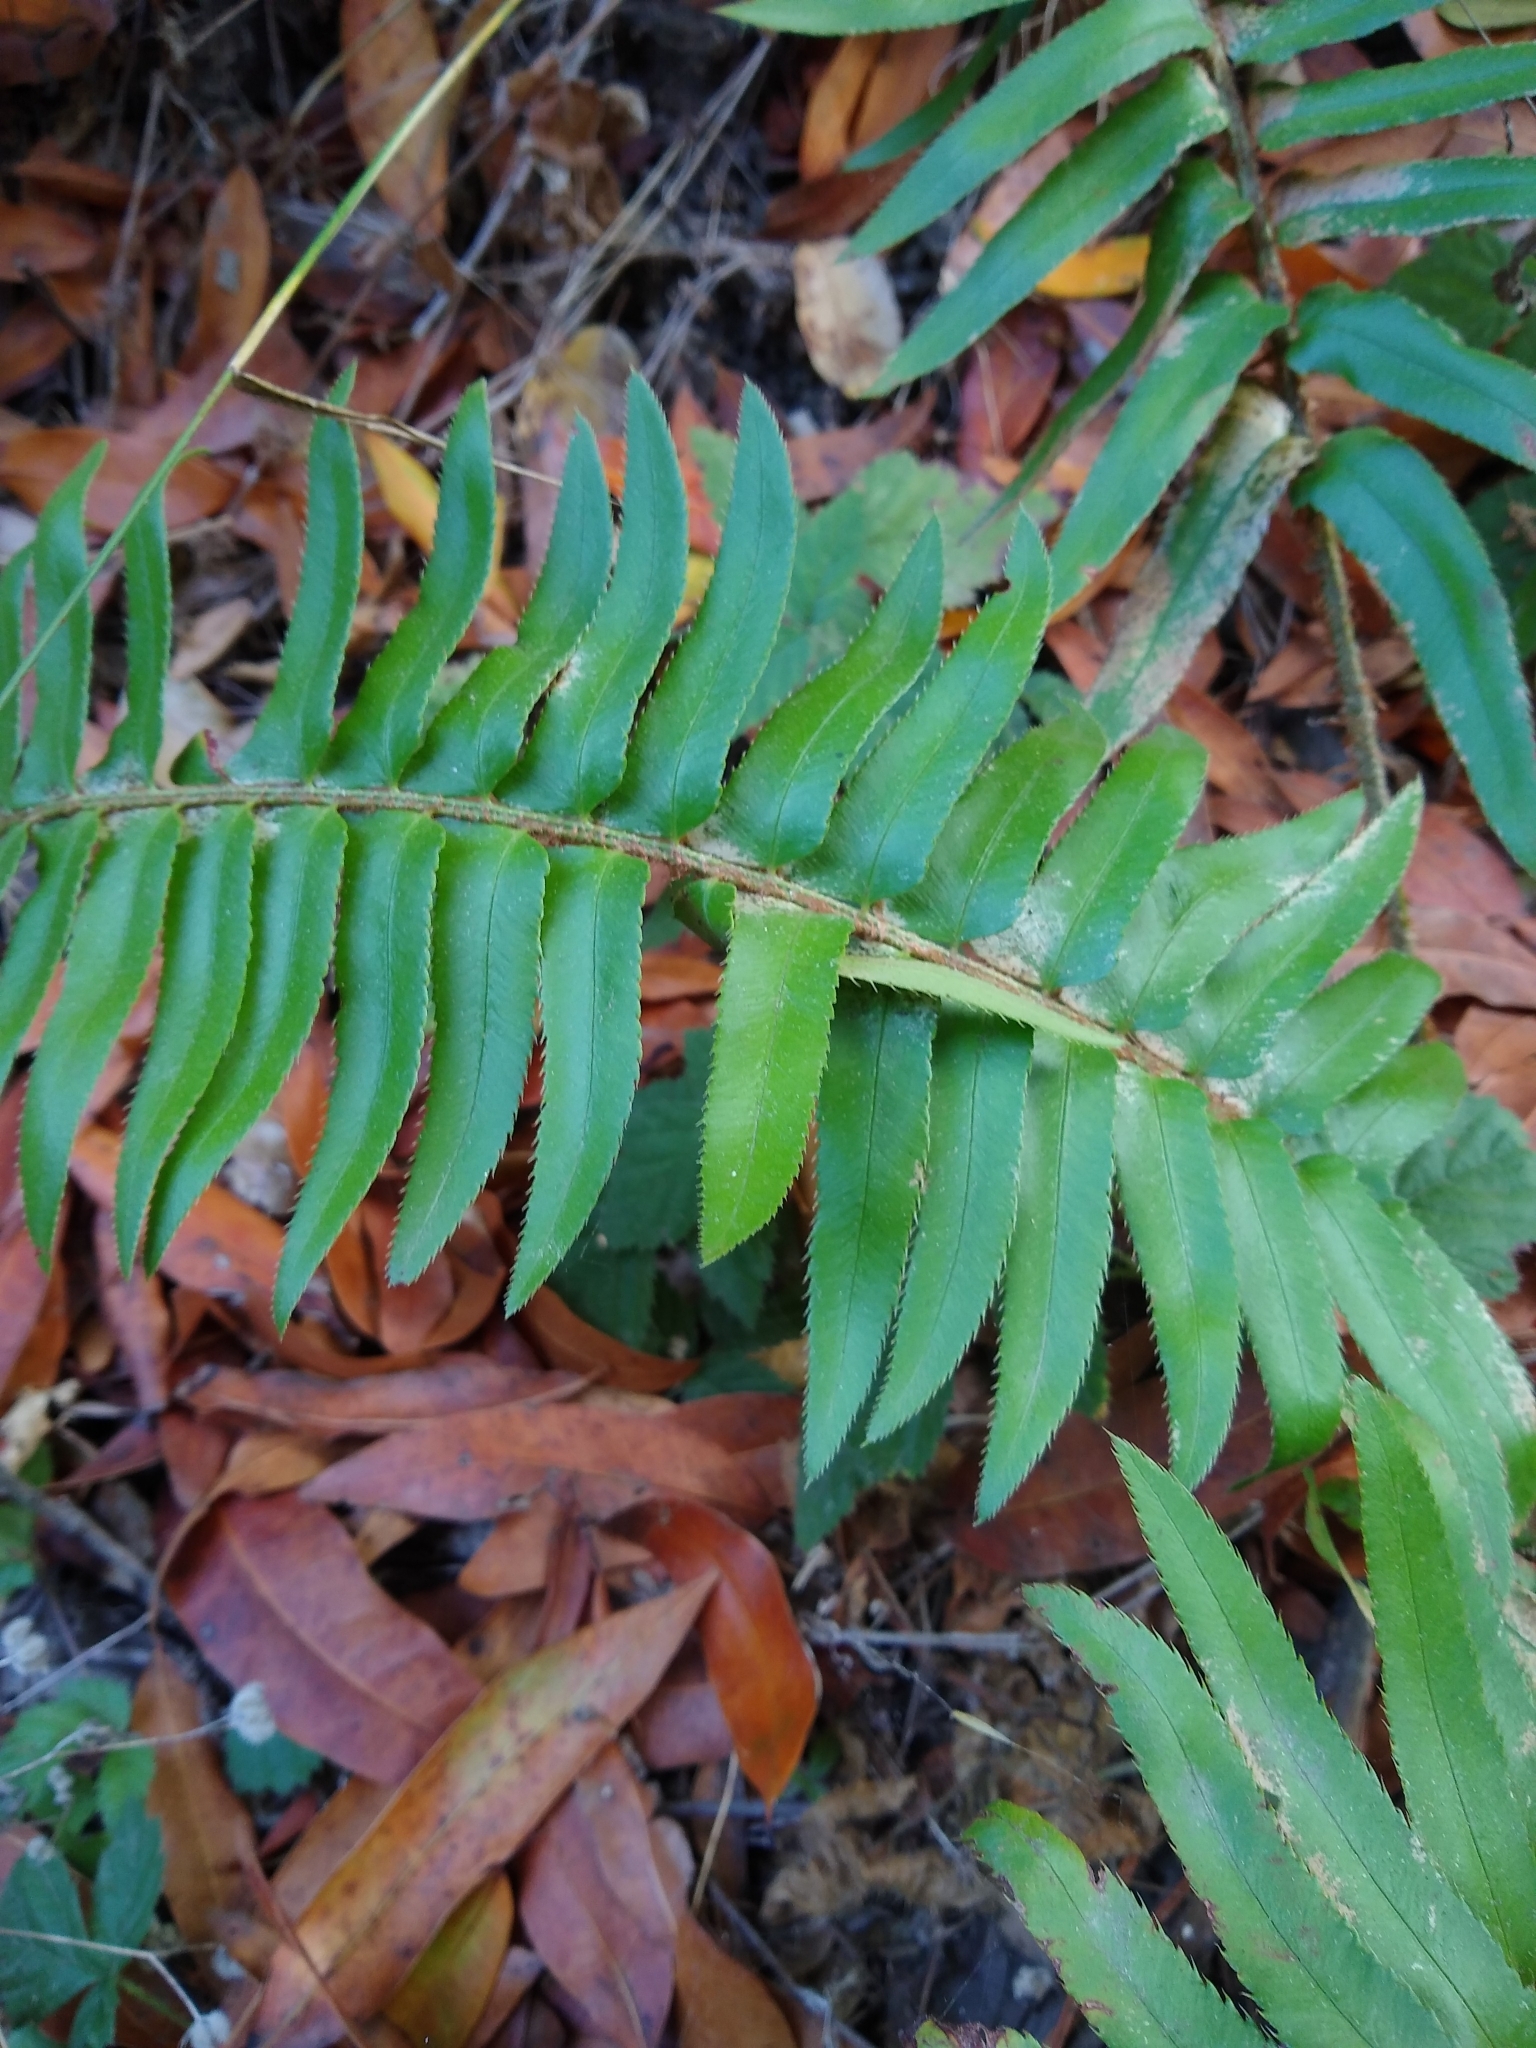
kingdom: Plantae
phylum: Tracheophyta
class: Polypodiopsida
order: Polypodiales
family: Dryopteridaceae
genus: Polystichum
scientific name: Polystichum munitum
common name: Western sword-fern
